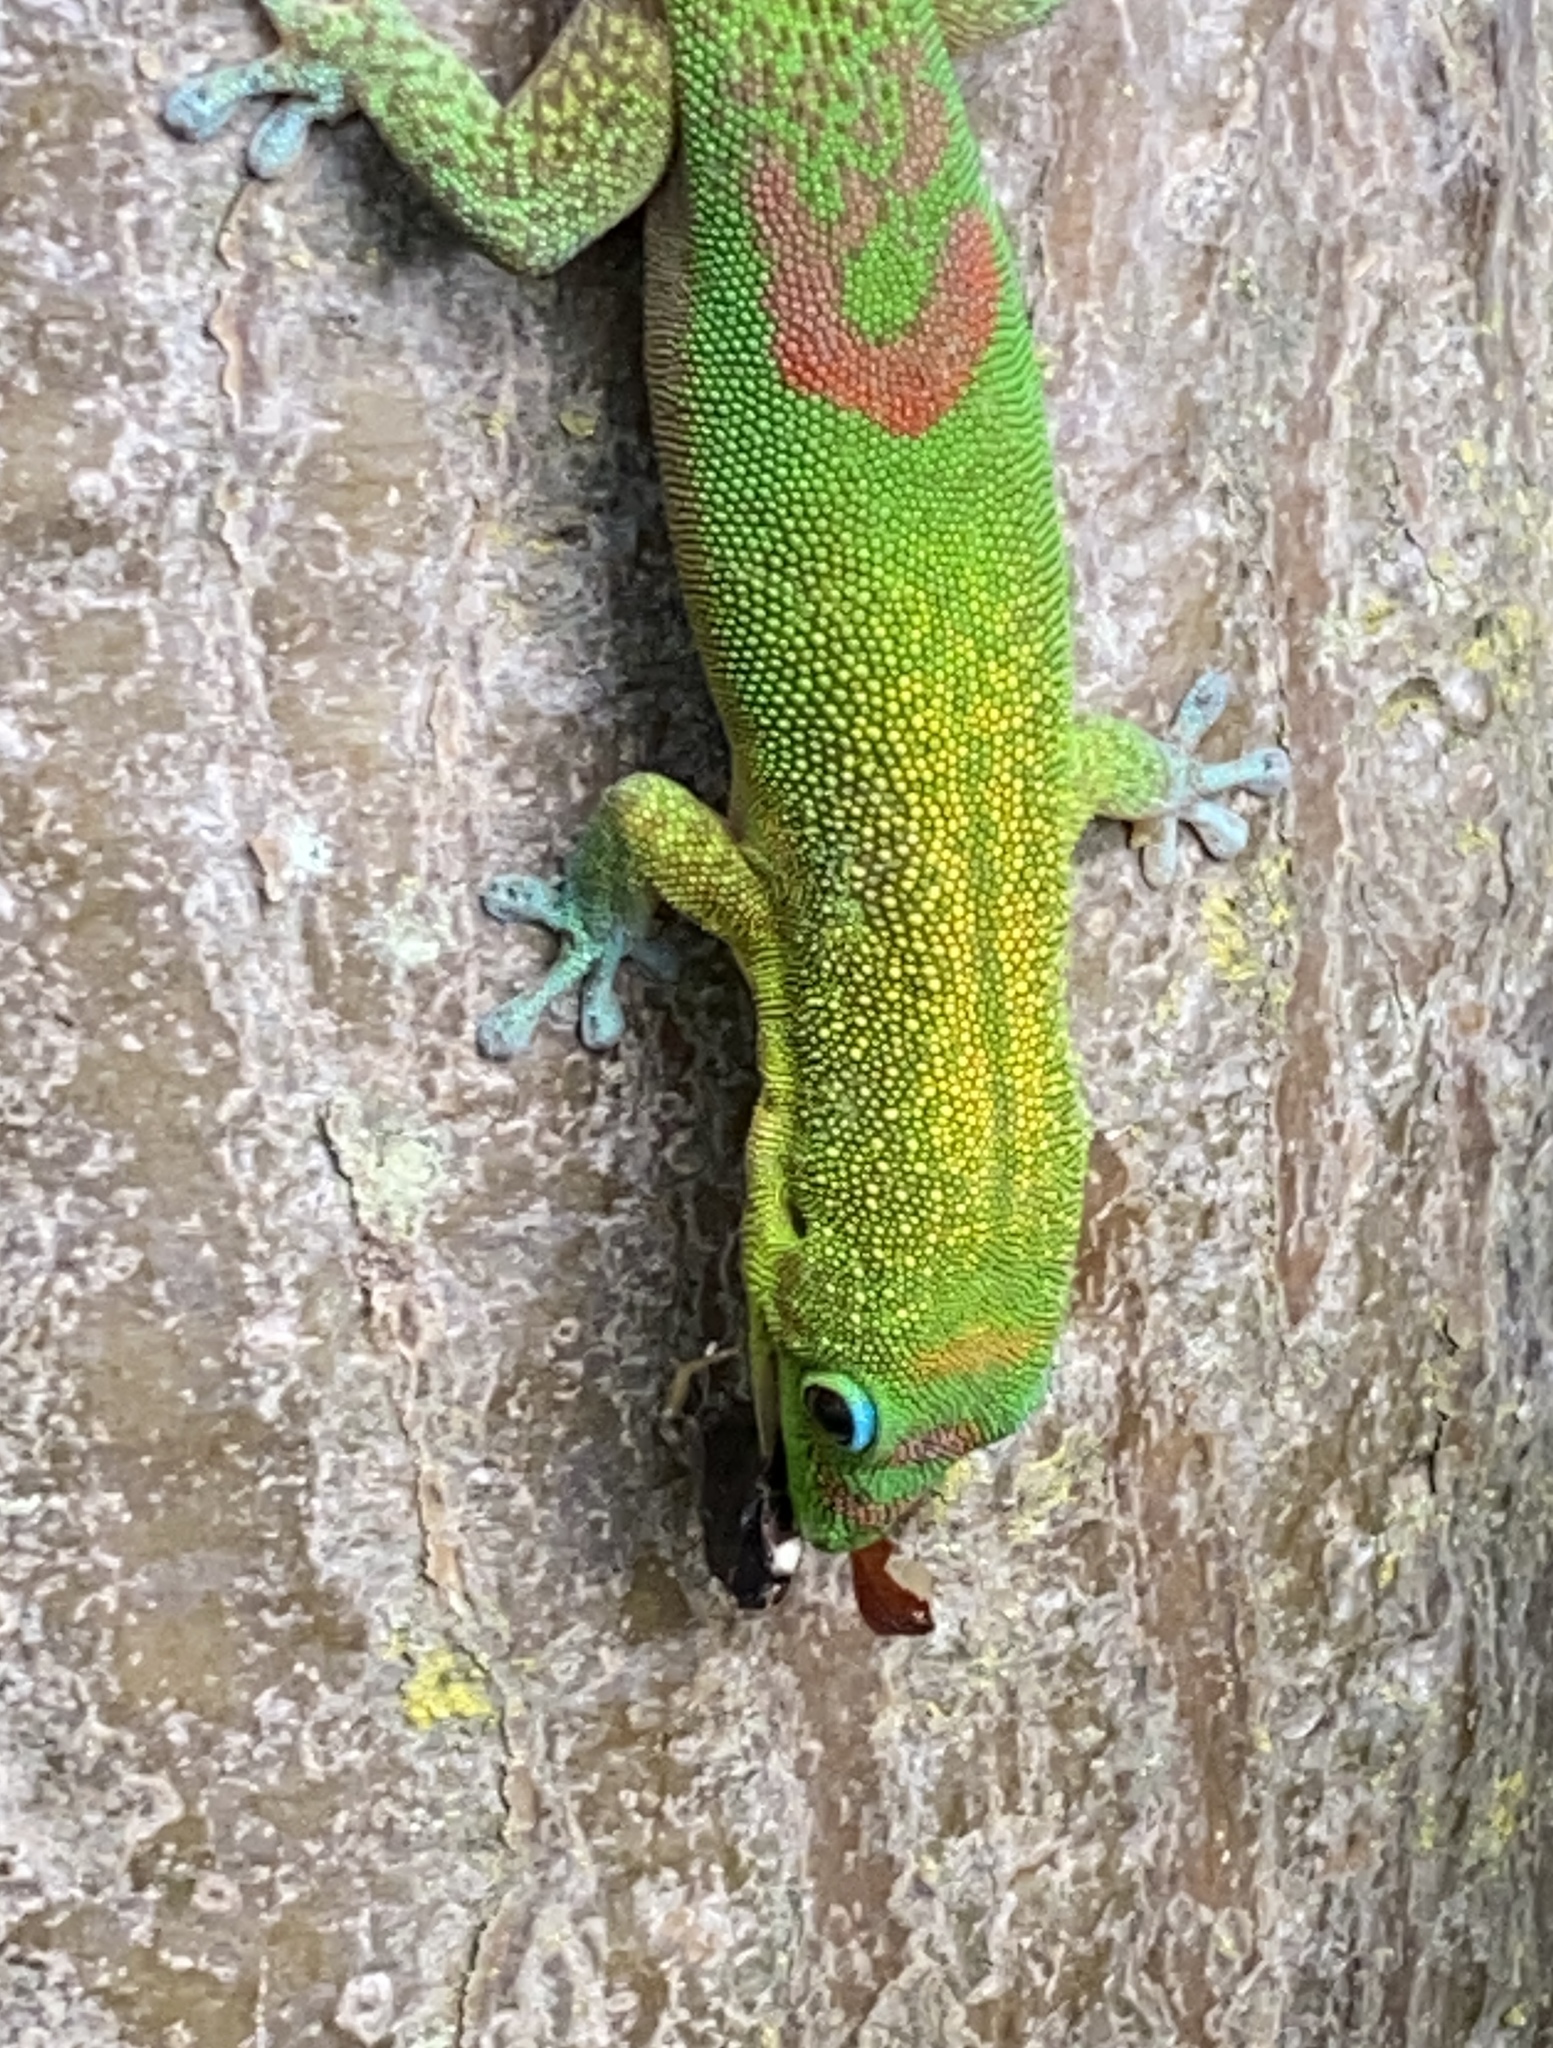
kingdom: Animalia
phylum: Chordata
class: Squamata
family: Gekkonidae
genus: Phelsuma
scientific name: Phelsuma laticauda
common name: Gold dust day gecko
